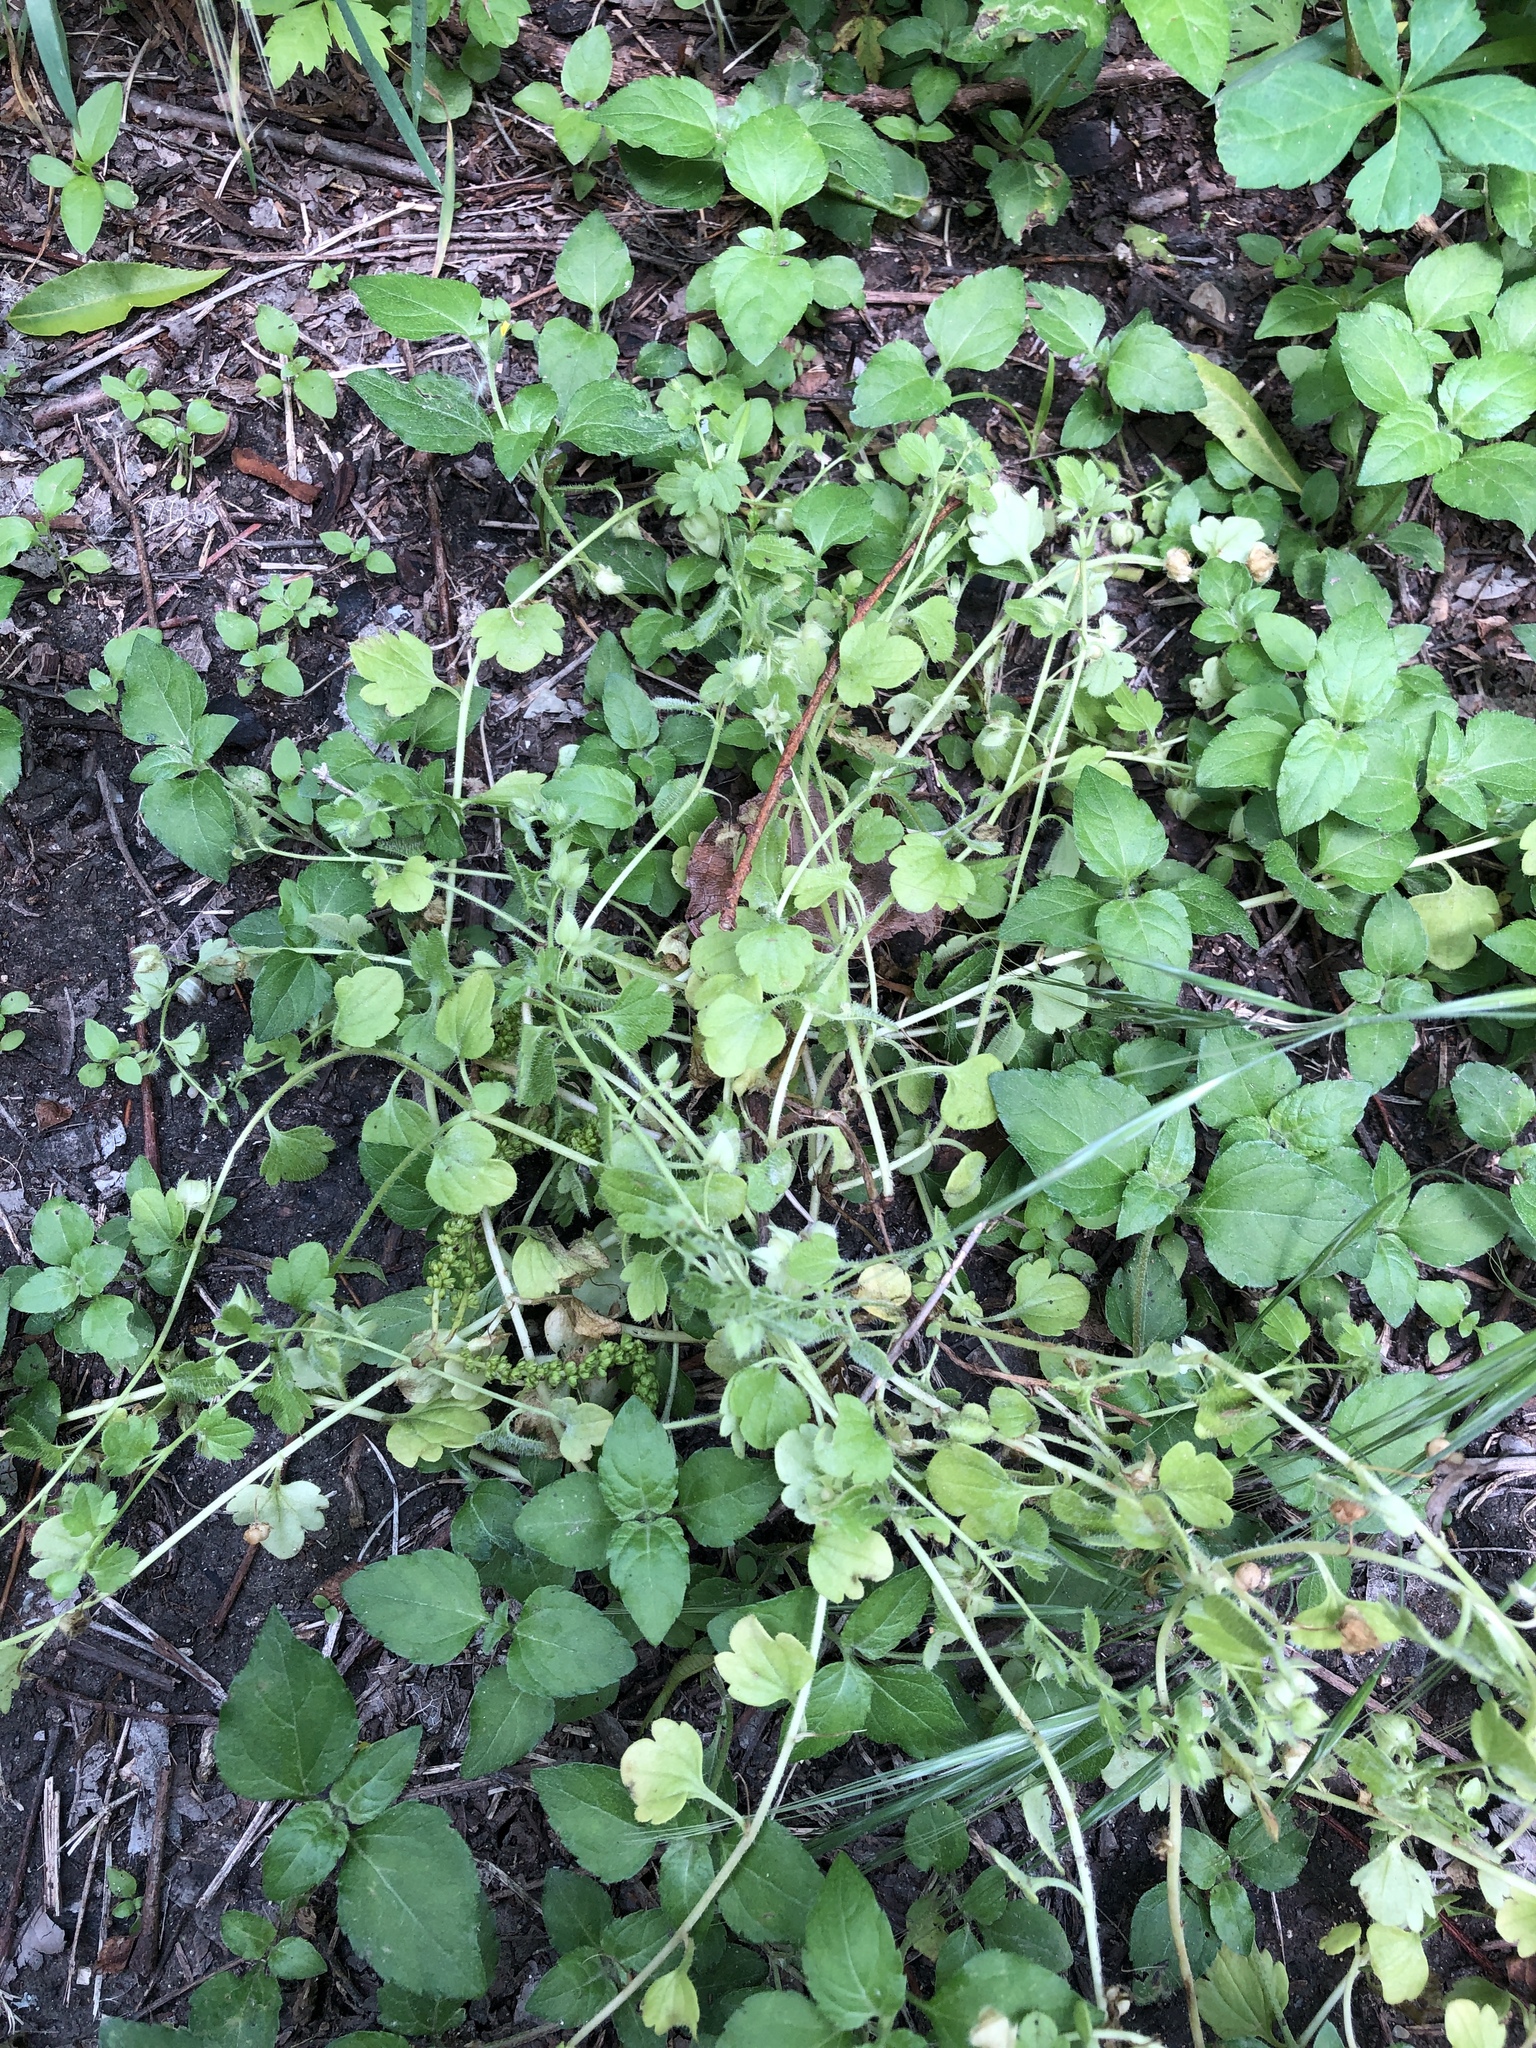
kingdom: Plantae
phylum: Tracheophyta
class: Magnoliopsida
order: Lamiales
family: Plantaginaceae
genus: Veronica
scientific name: Veronica hederifolia
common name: Ivy-leaved speedwell
